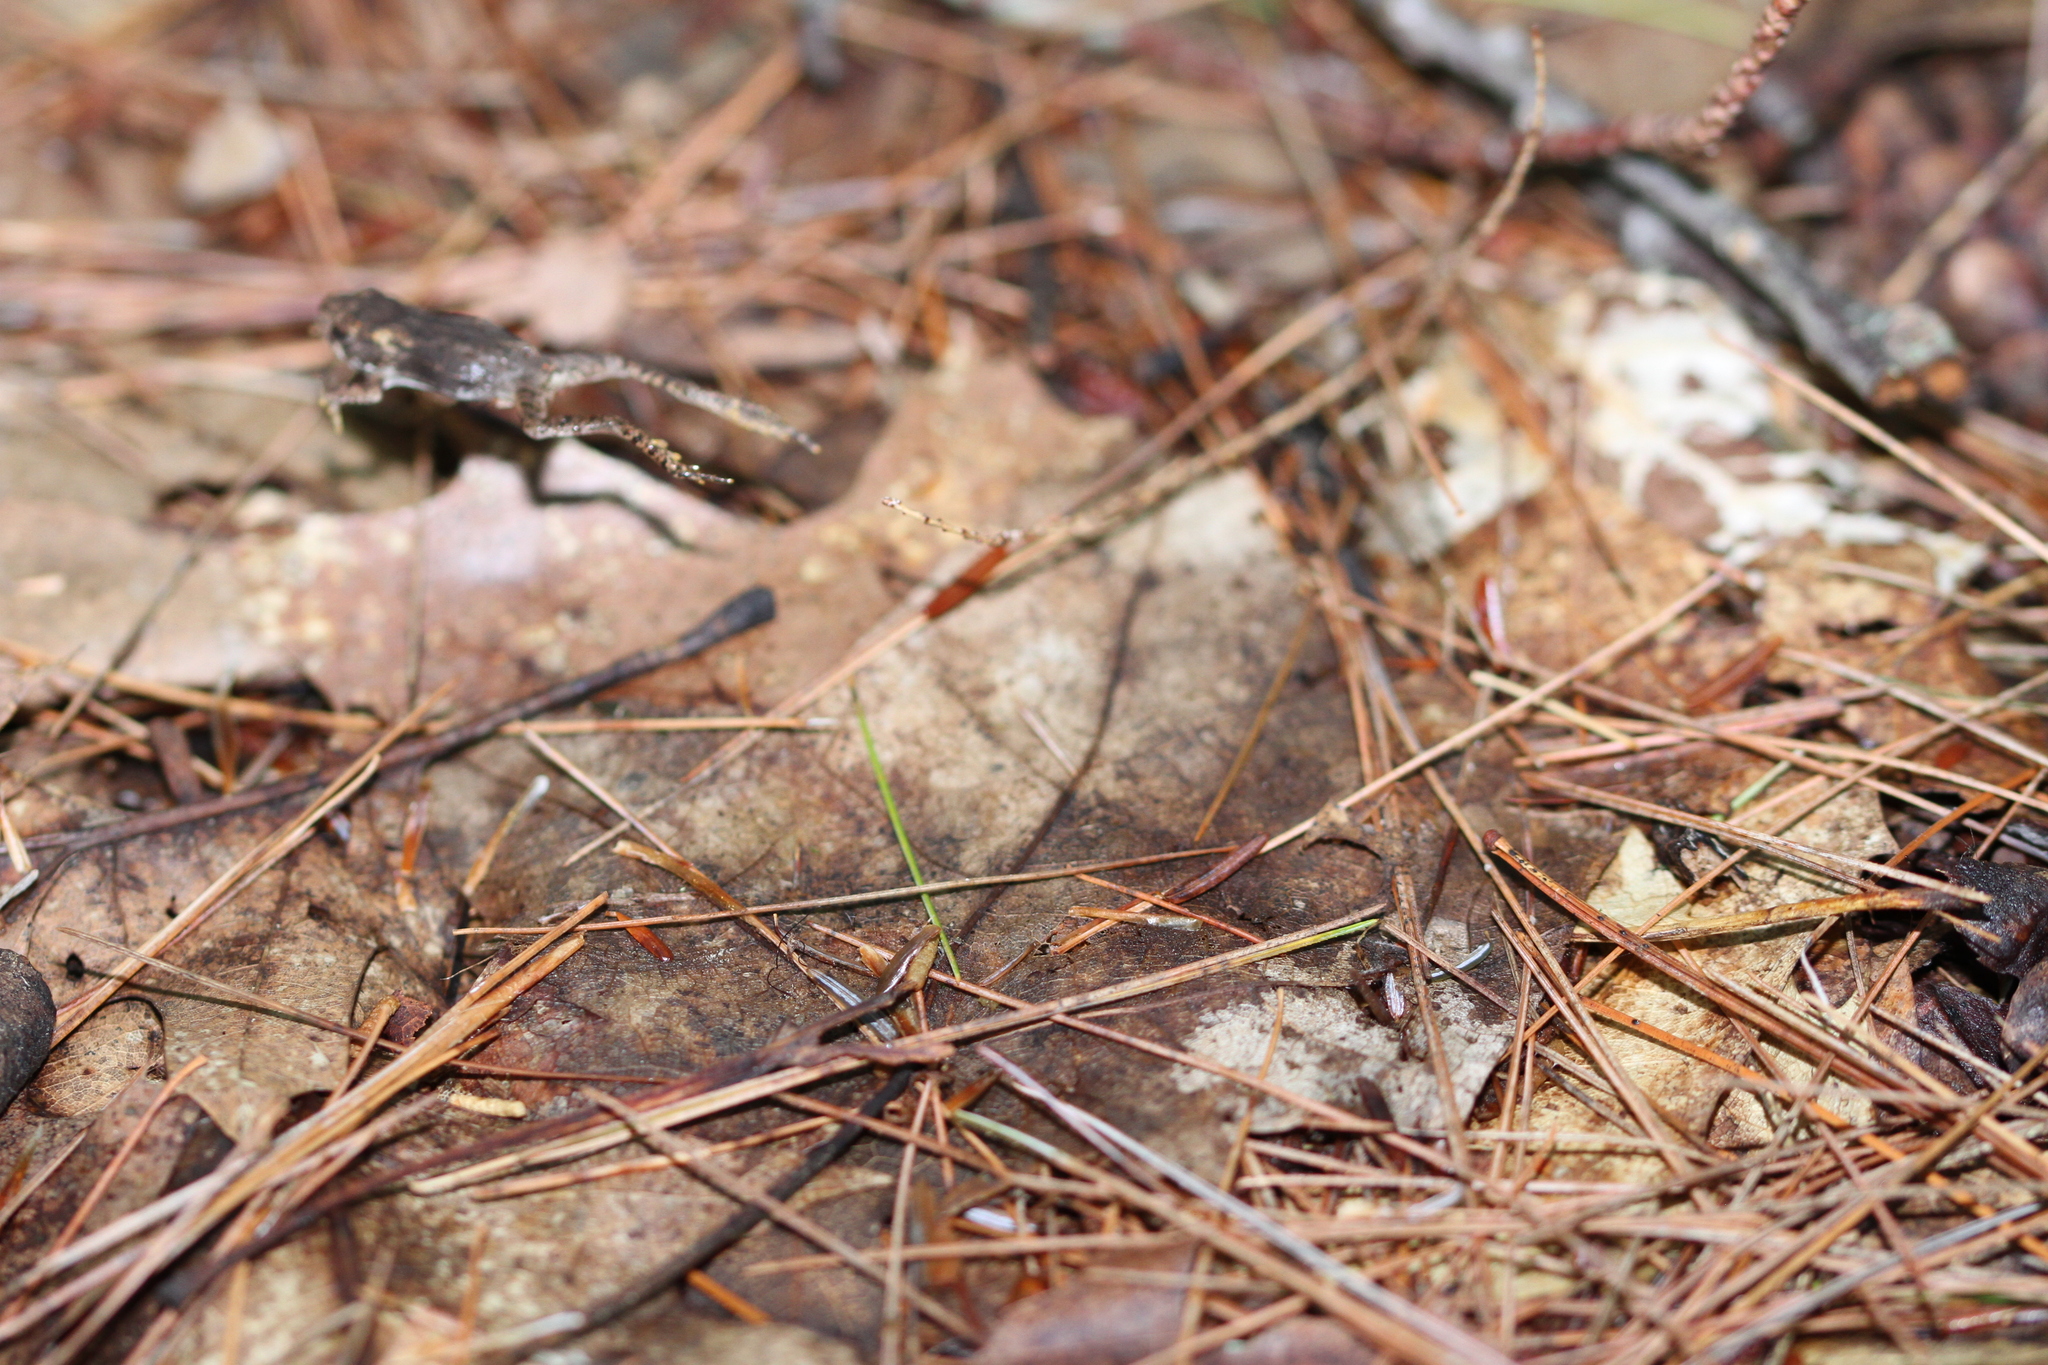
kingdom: Animalia
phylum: Chordata
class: Amphibia
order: Anura
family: Bufonidae
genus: Anaxyrus
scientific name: Anaxyrus americanus
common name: American toad
